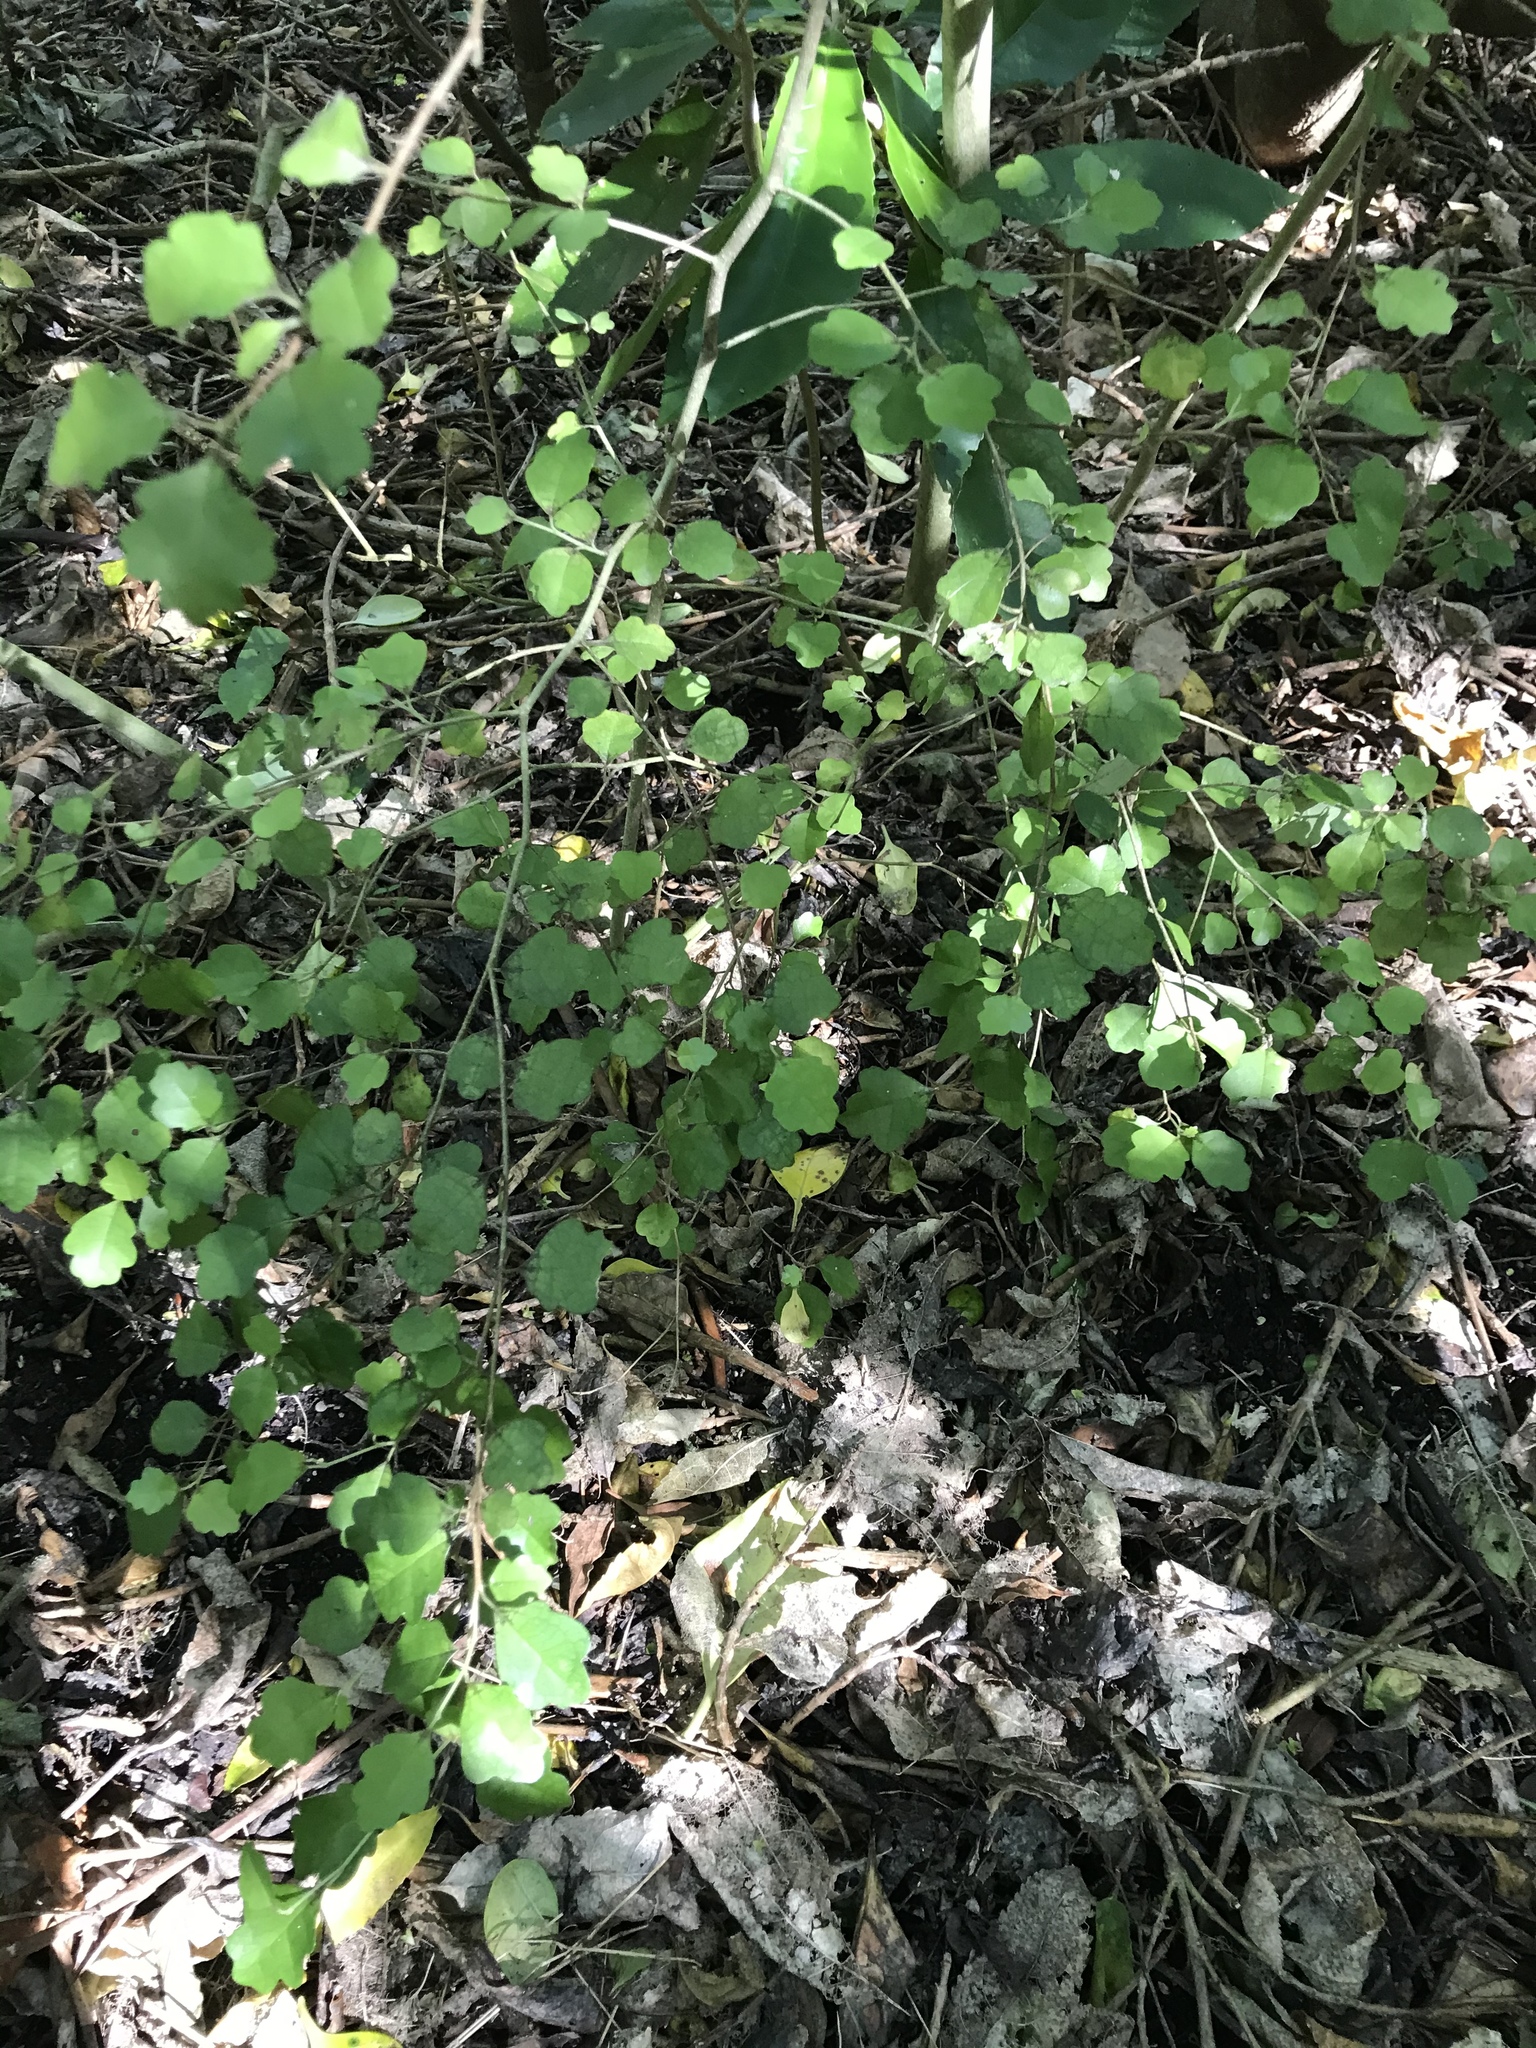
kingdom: Plantae
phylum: Tracheophyta
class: Magnoliopsida
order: Apiales
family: Pennantiaceae
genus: Pennantia
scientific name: Pennantia corymbosa
